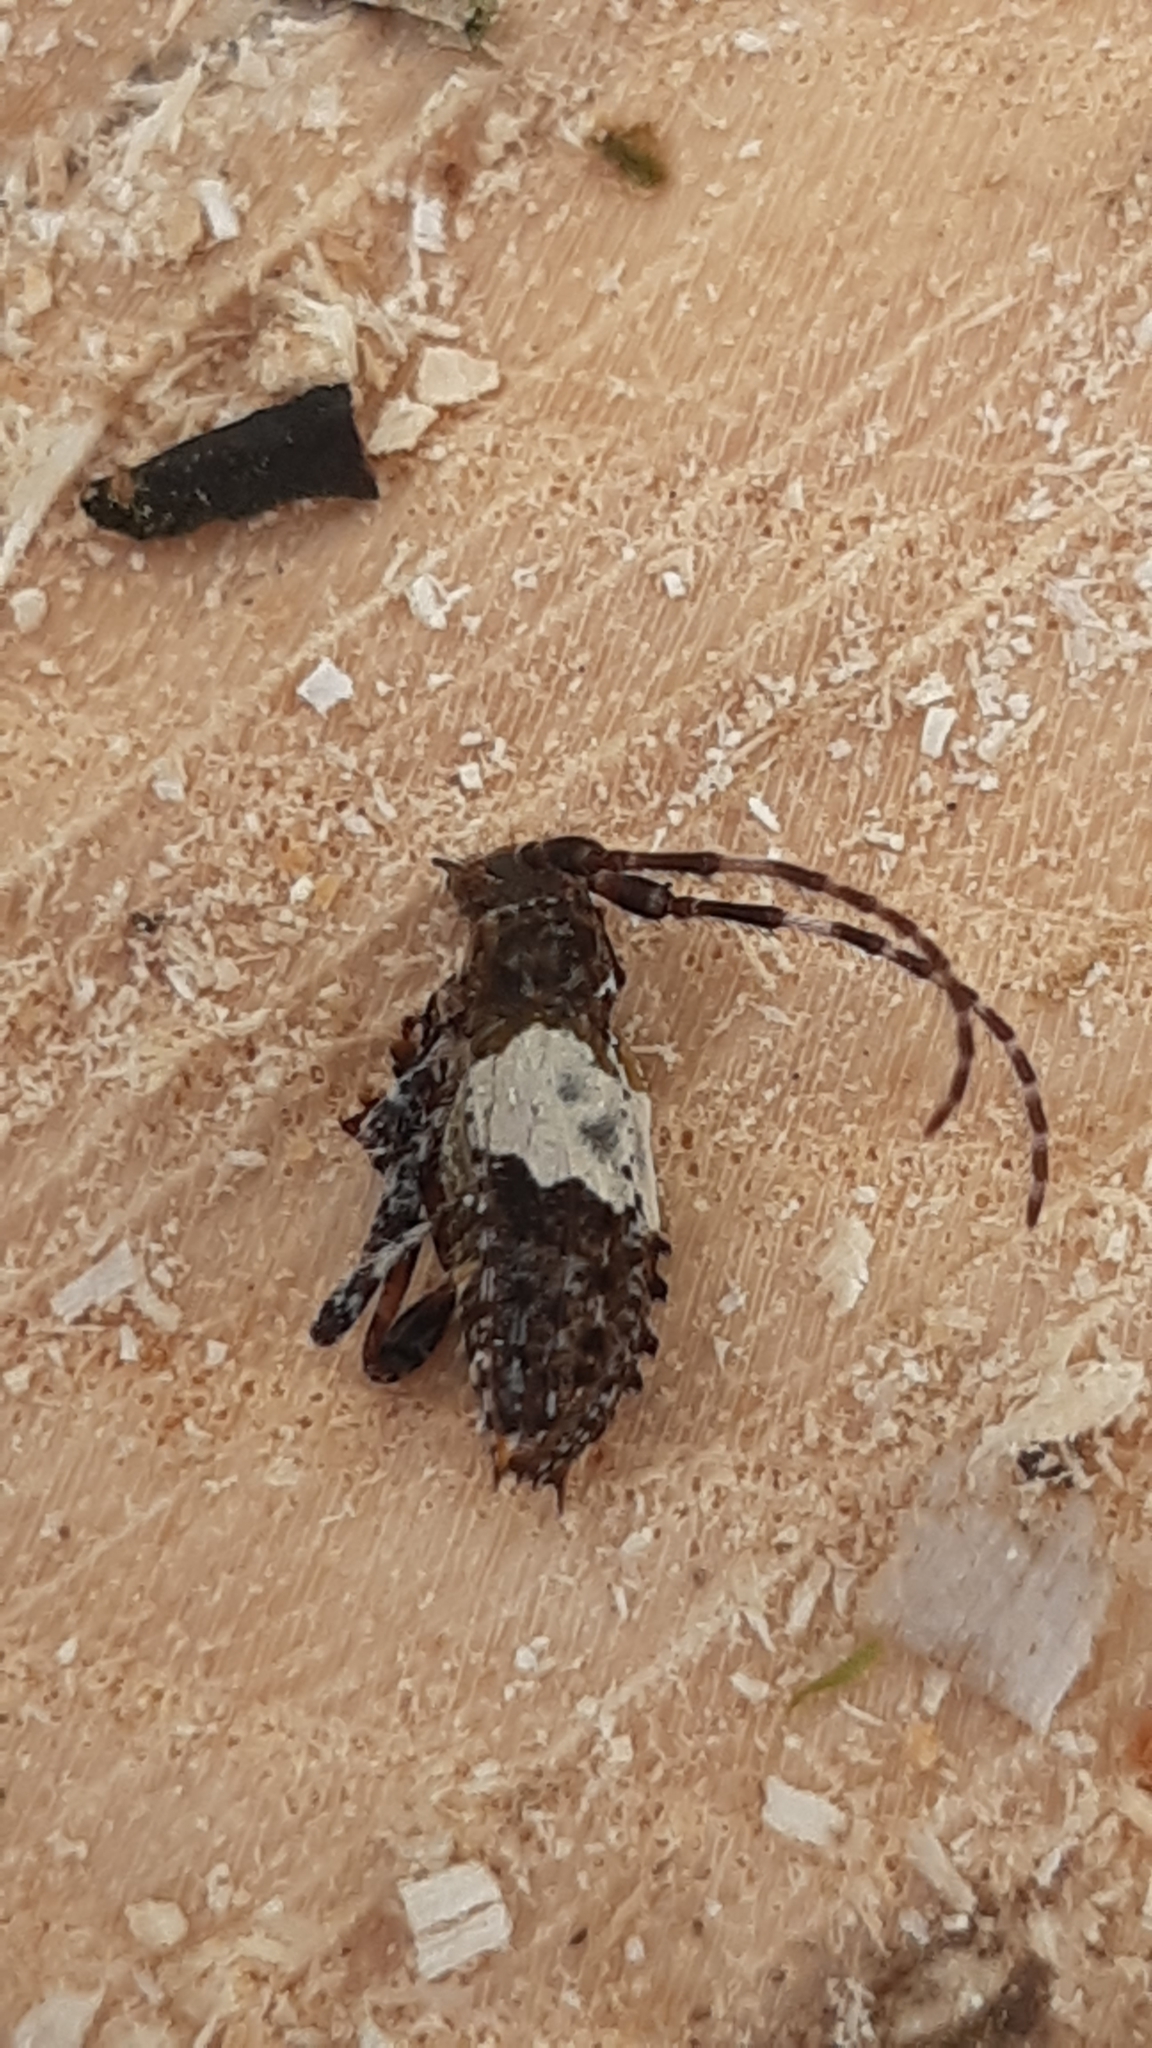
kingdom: Animalia
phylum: Arthropoda
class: Insecta
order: Coleoptera
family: Cerambycidae
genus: Pogonocherus
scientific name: Pogonocherus hispidulus
